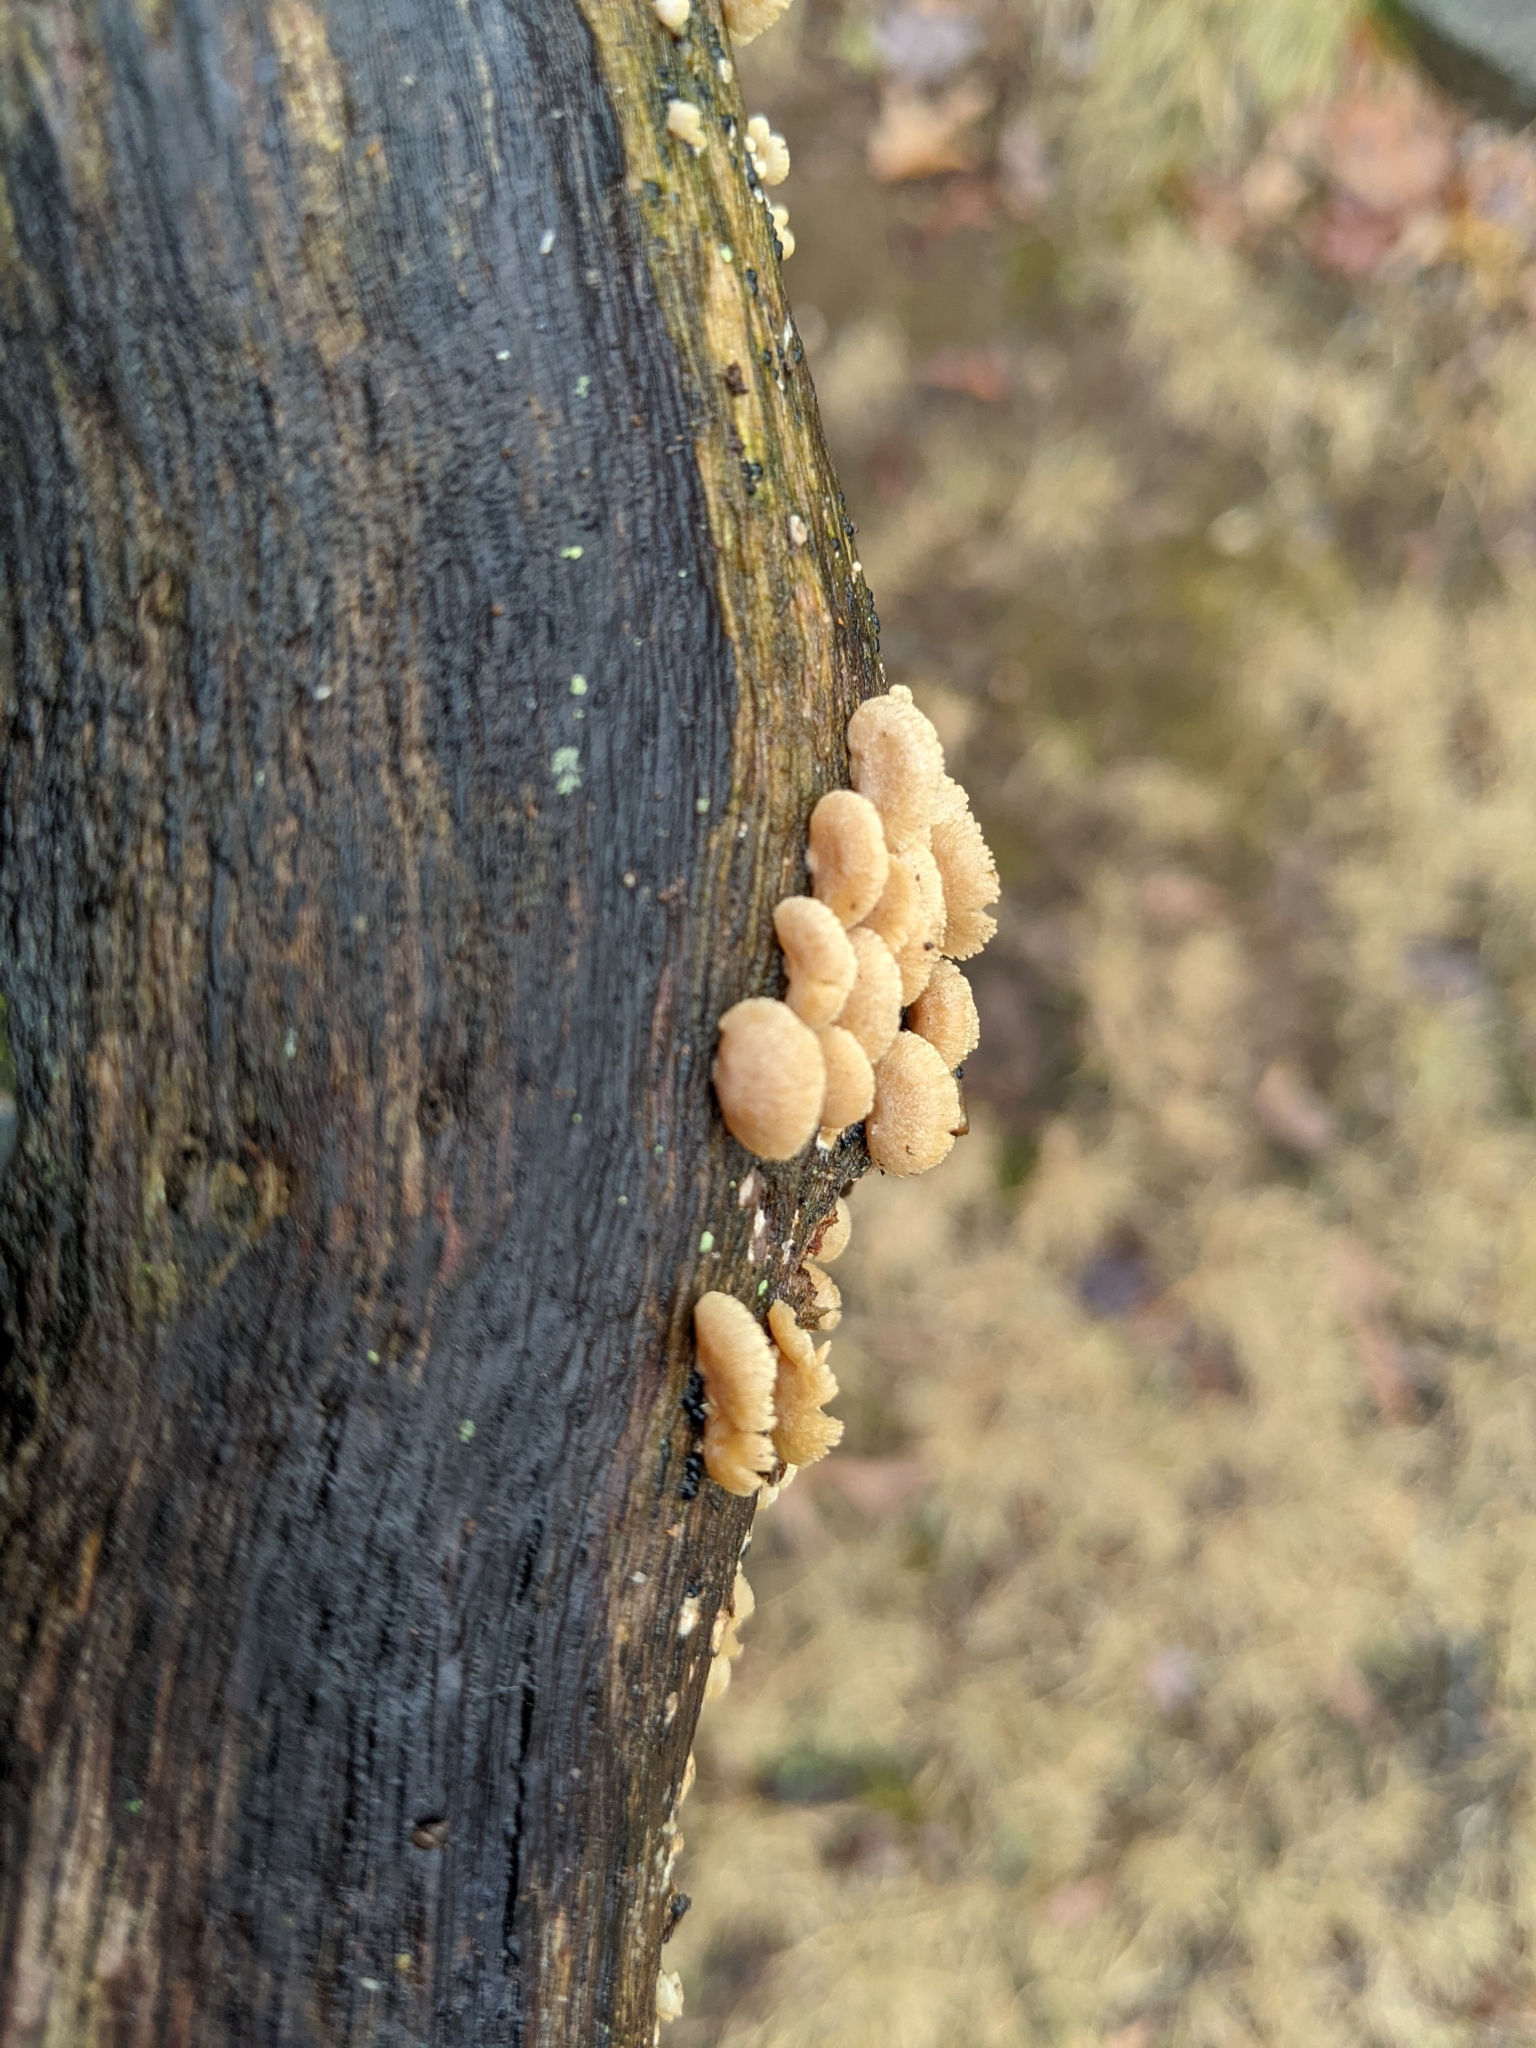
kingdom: Fungi
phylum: Basidiomycota
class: Agaricomycetes
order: Agaricales
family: Mycenaceae
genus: Panellus
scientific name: Panellus stipticus
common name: Bitter oysterling
